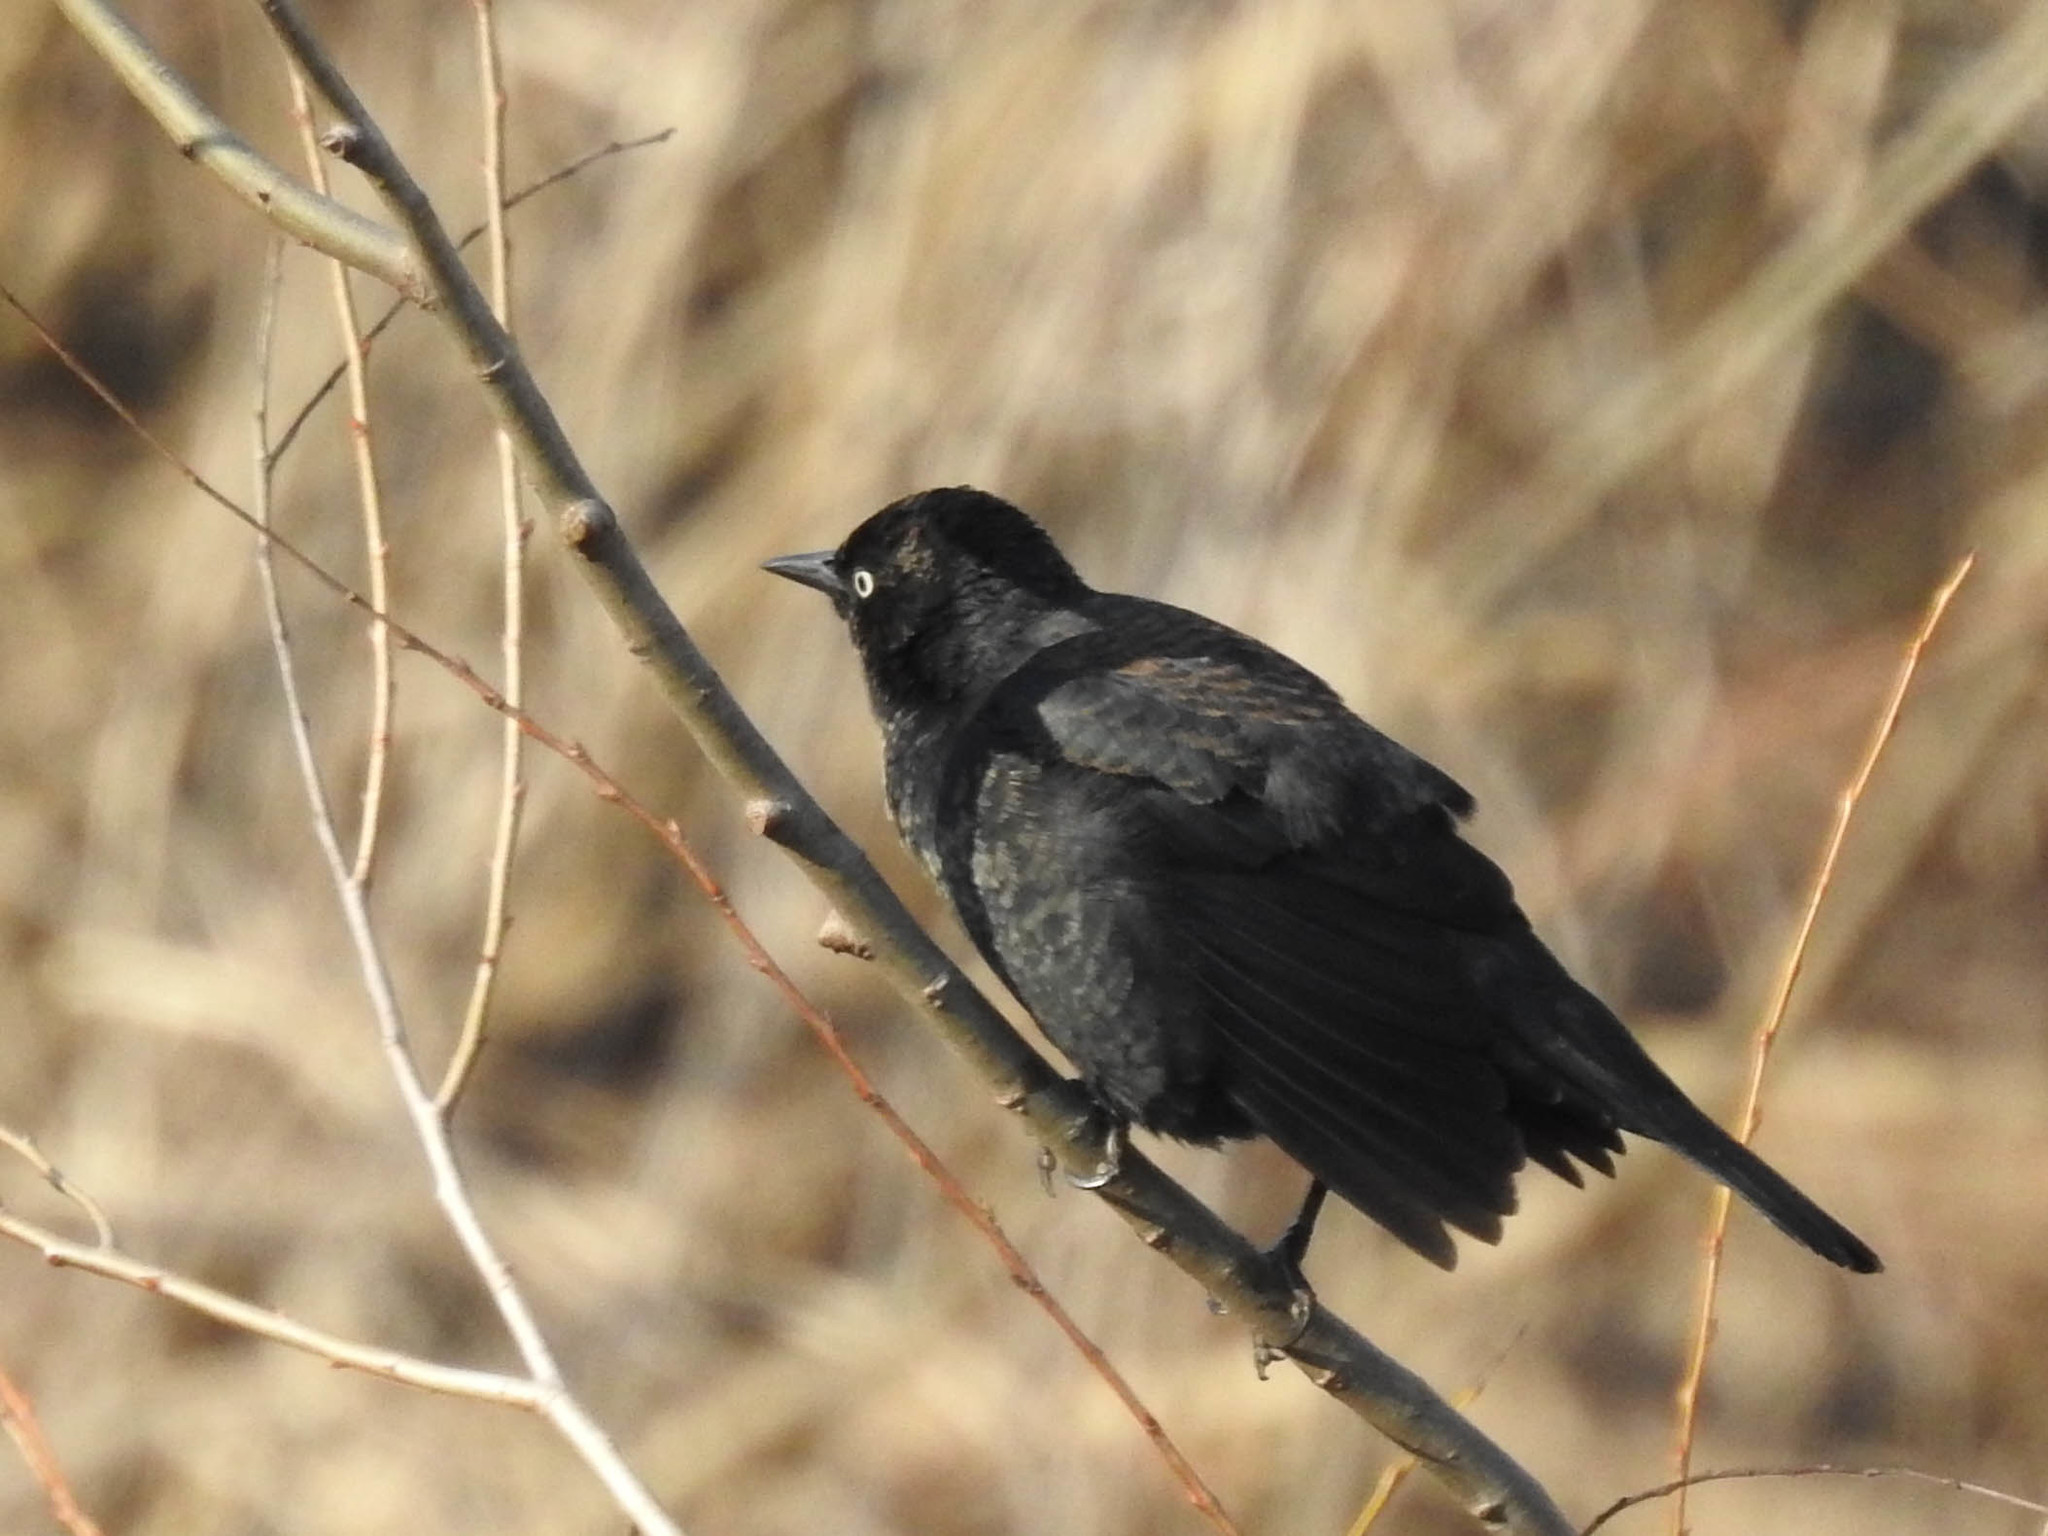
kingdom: Animalia
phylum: Chordata
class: Aves
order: Passeriformes
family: Icteridae
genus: Euphagus
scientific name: Euphagus carolinus
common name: Rusty blackbird
